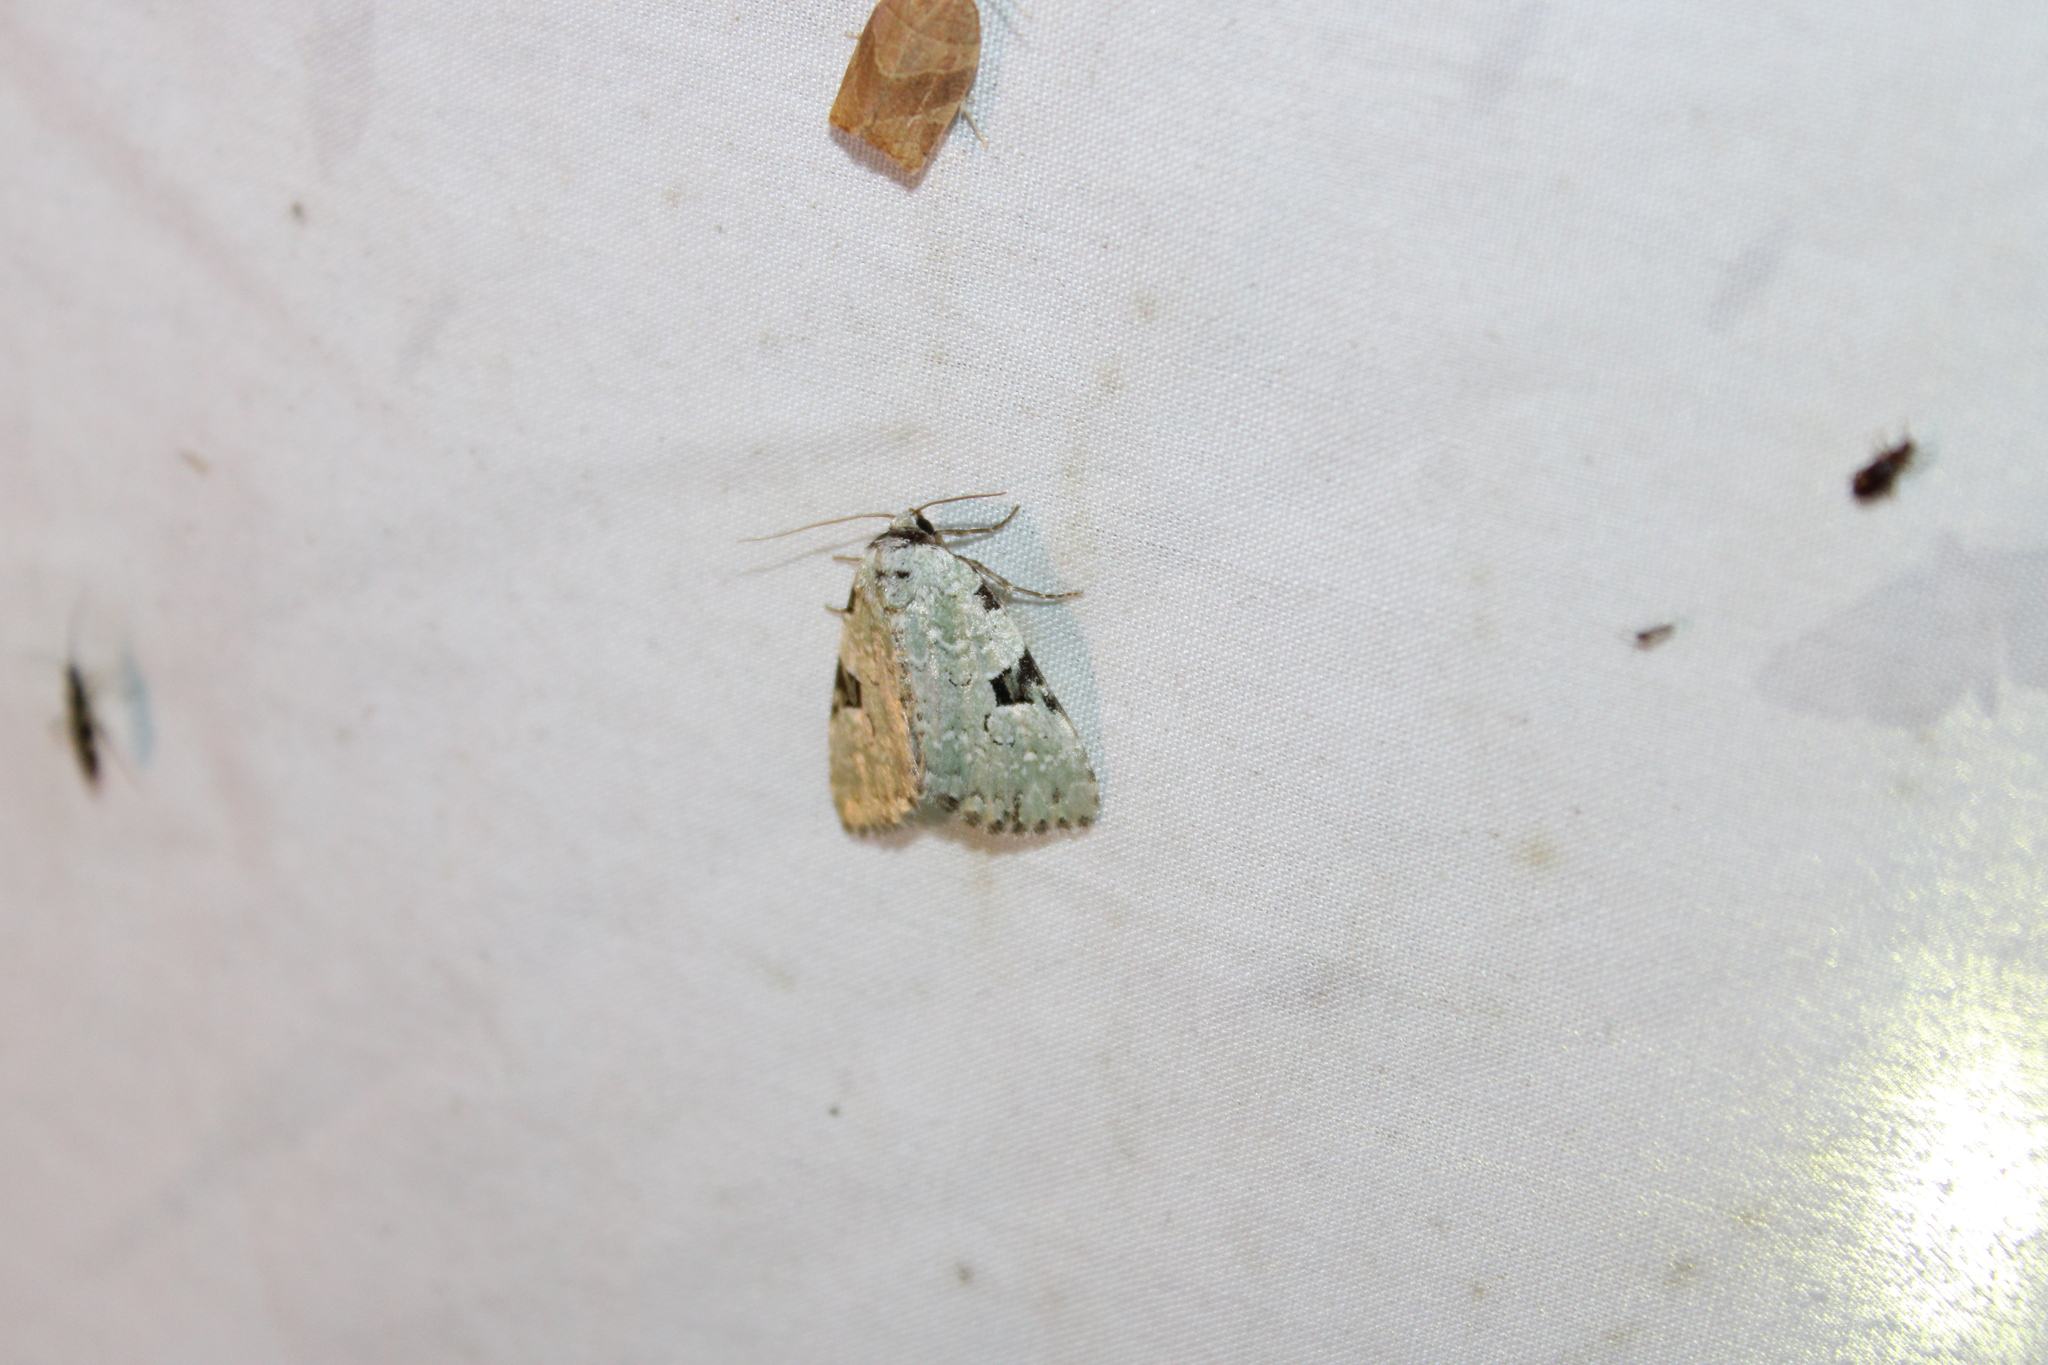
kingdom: Animalia
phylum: Arthropoda
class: Insecta
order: Lepidoptera
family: Noctuidae
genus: Leuconycta
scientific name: Leuconycta diphteroides
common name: Green leuconycta moth
